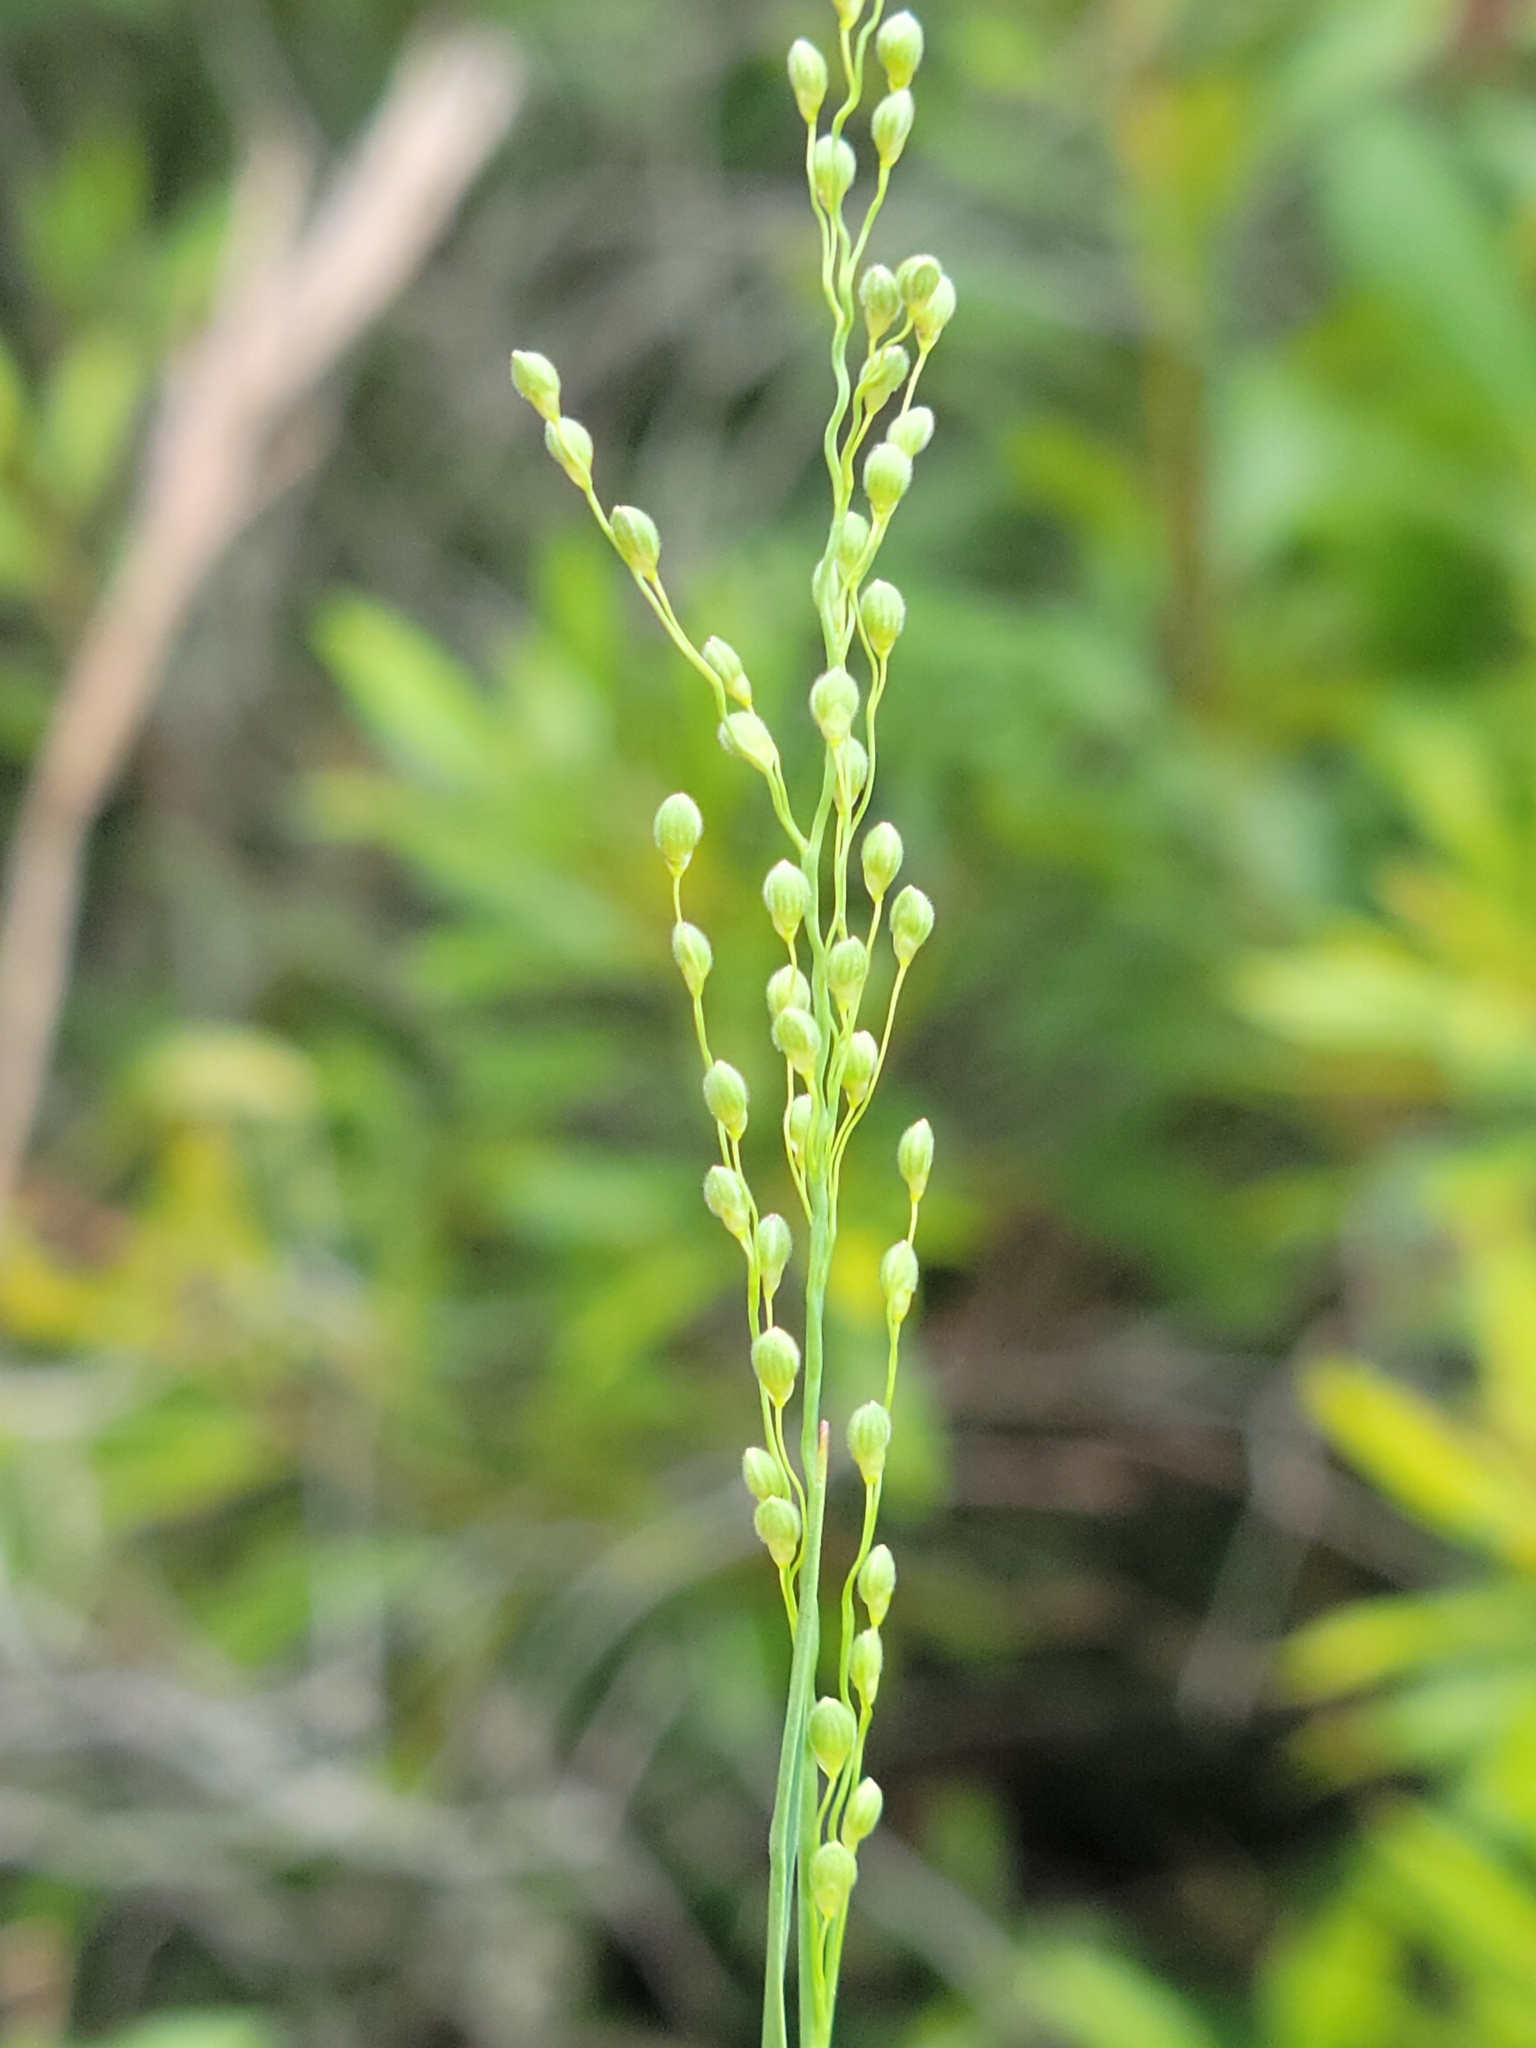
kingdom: Plantae
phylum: Tracheophyta
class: Liliopsida
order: Poales
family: Poaceae
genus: Dichanthelium
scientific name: Dichanthelium neuranthum
